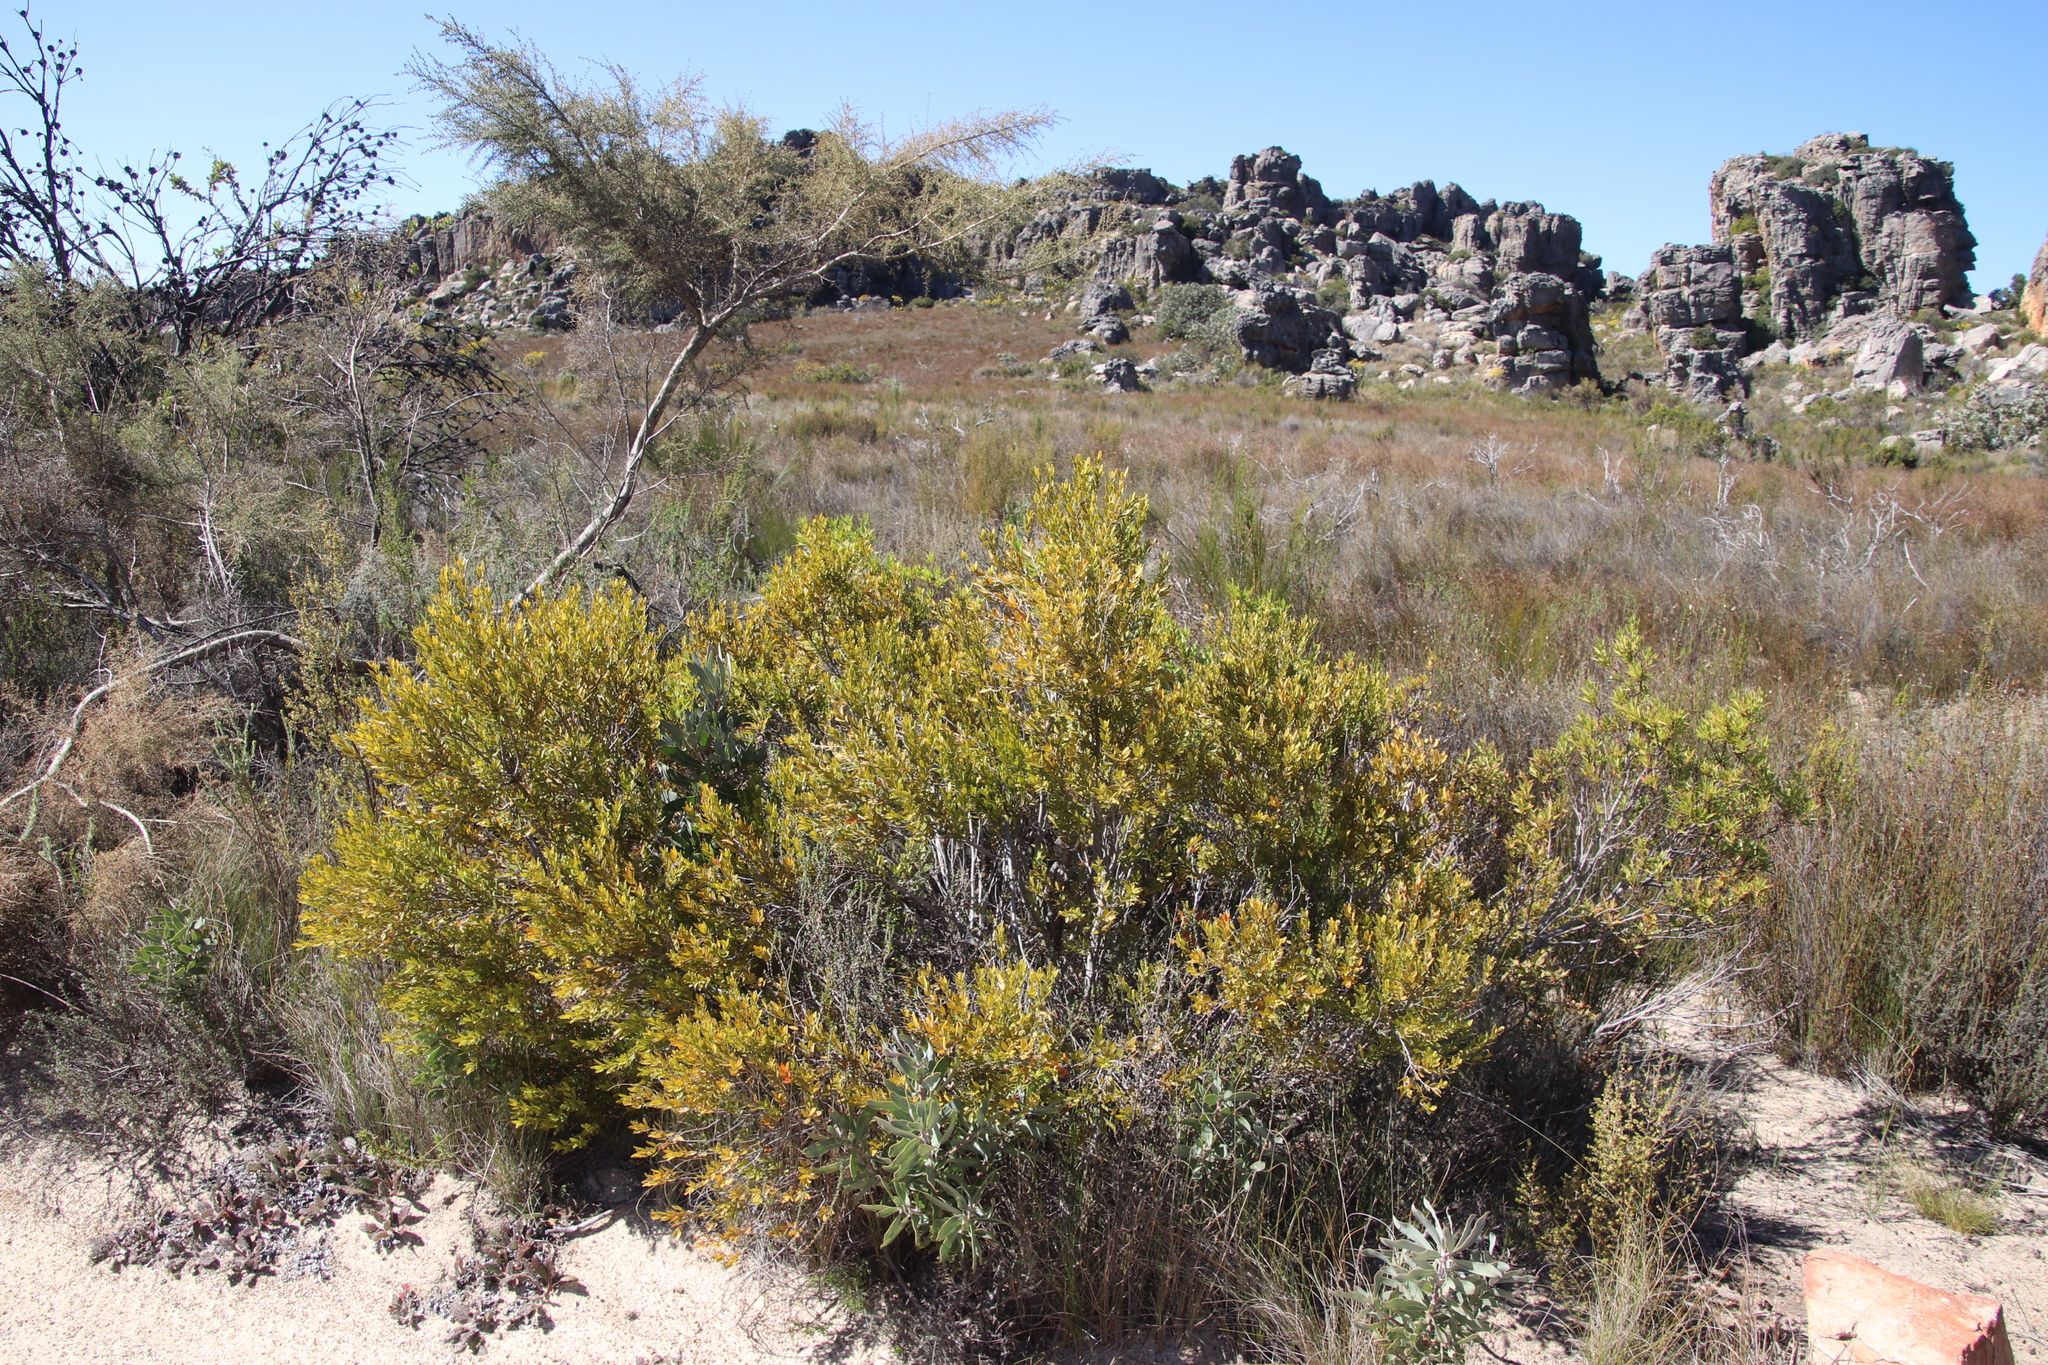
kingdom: Plantae
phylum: Tracheophyta
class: Magnoliopsida
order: Ericales
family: Ebenaceae
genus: Diospyros
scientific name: Diospyros glabra
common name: Fynbos star apple
